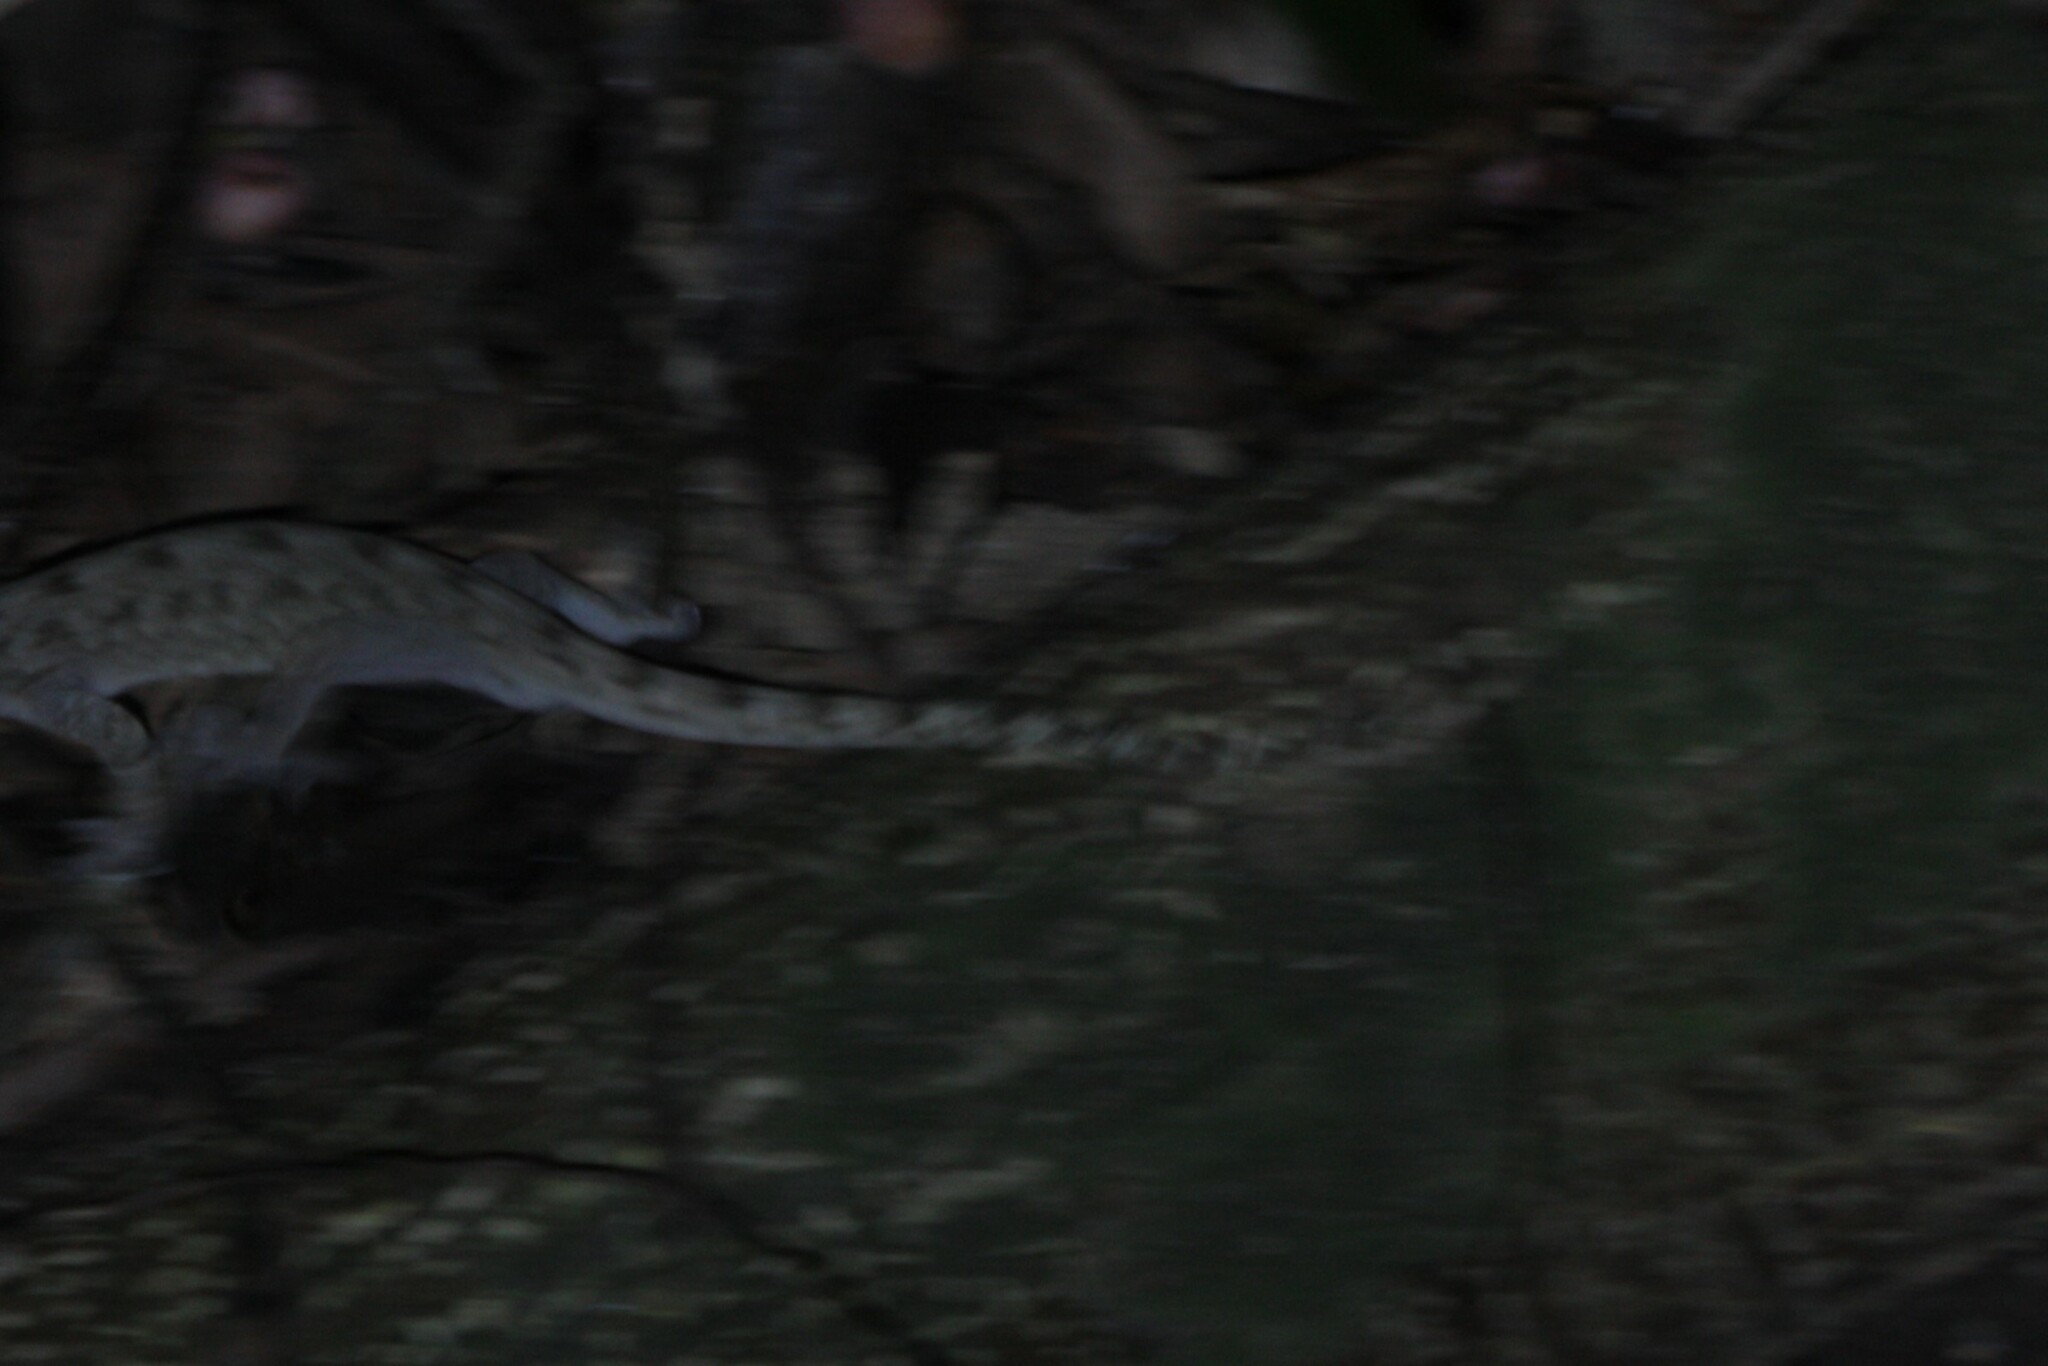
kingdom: Animalia
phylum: Chordata
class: Squamata
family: Gekkonidae
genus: Gekko
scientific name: Gekko hokouensis
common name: Kwangsi gecko
